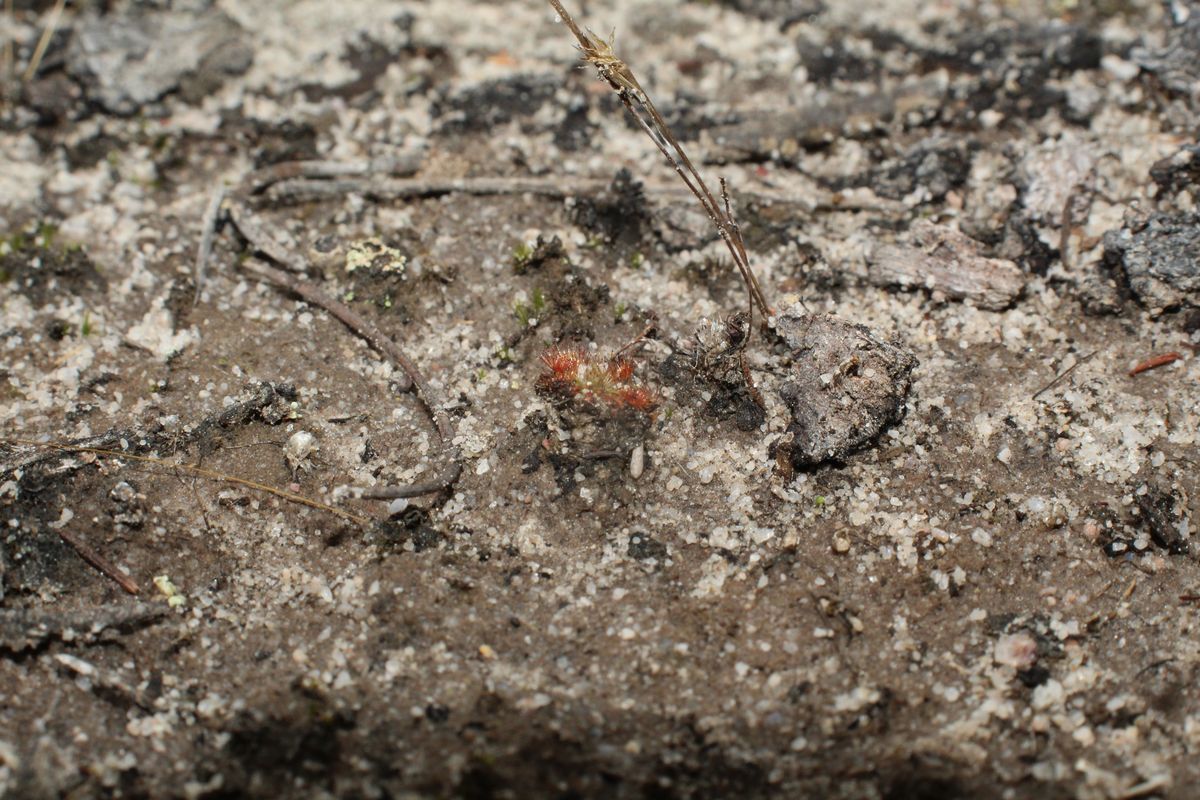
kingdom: Plantae
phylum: Tracheophyta
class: Magnoliopsida
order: Caryophyllales
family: Droseraceae
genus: Drosera
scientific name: Drosera nitidula
